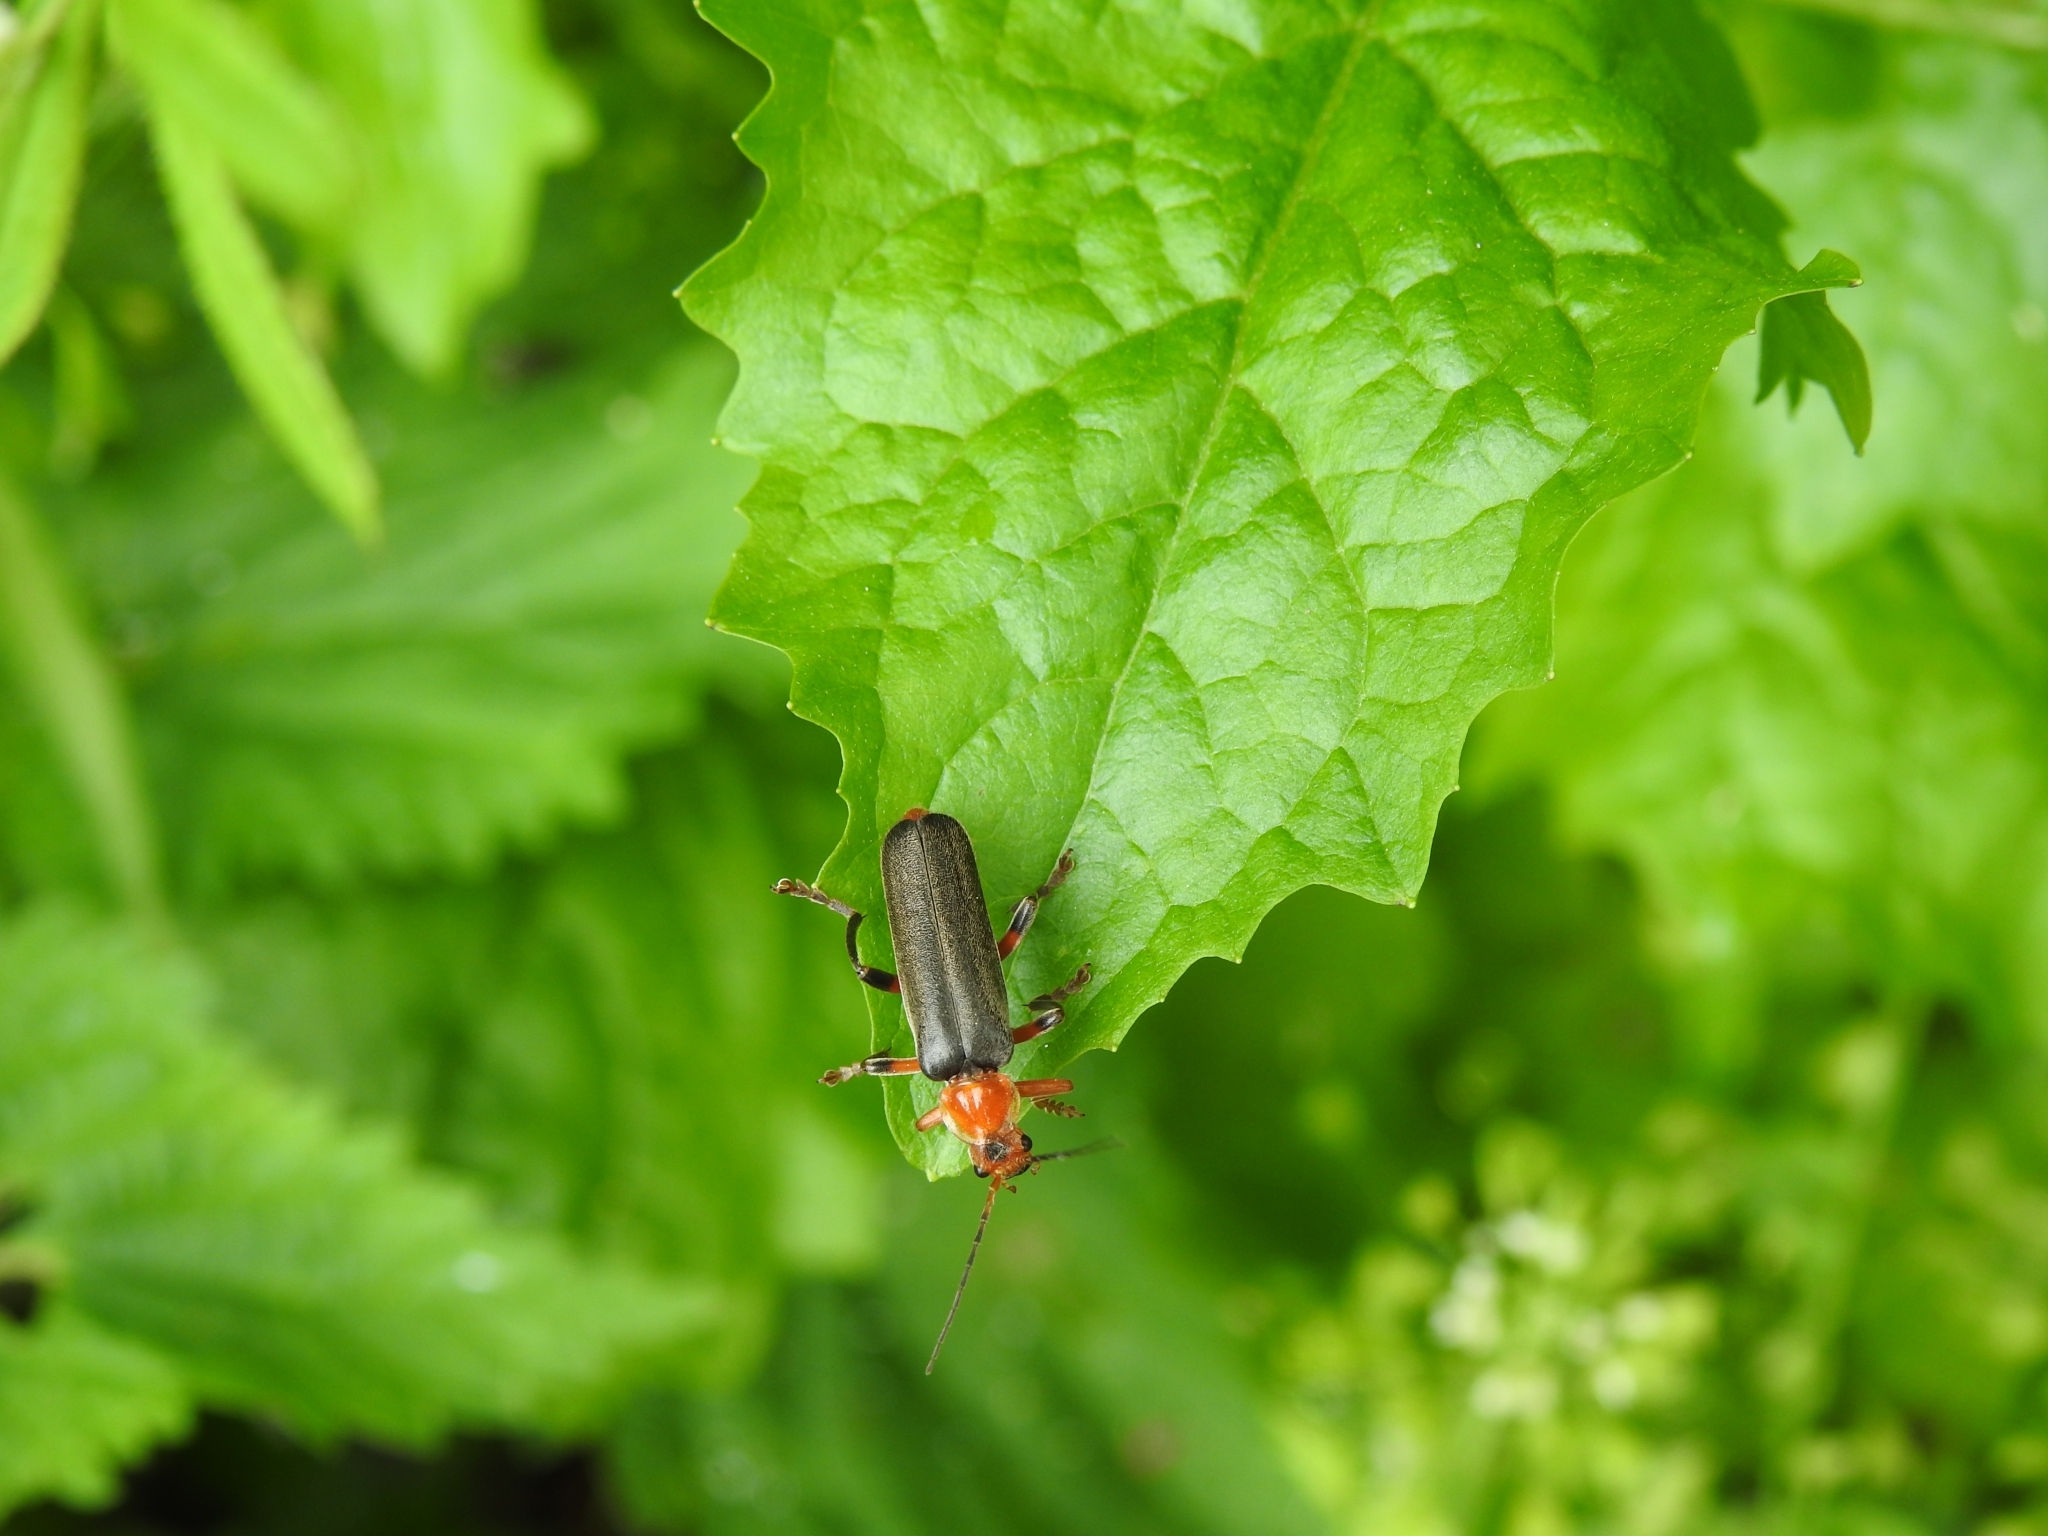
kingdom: Animalia
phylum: Arthropoda
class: Insecta
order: Coleoptera
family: Cantharidae
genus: Cantharis
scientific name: Cantharis livida
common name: Livid soldier beetle
